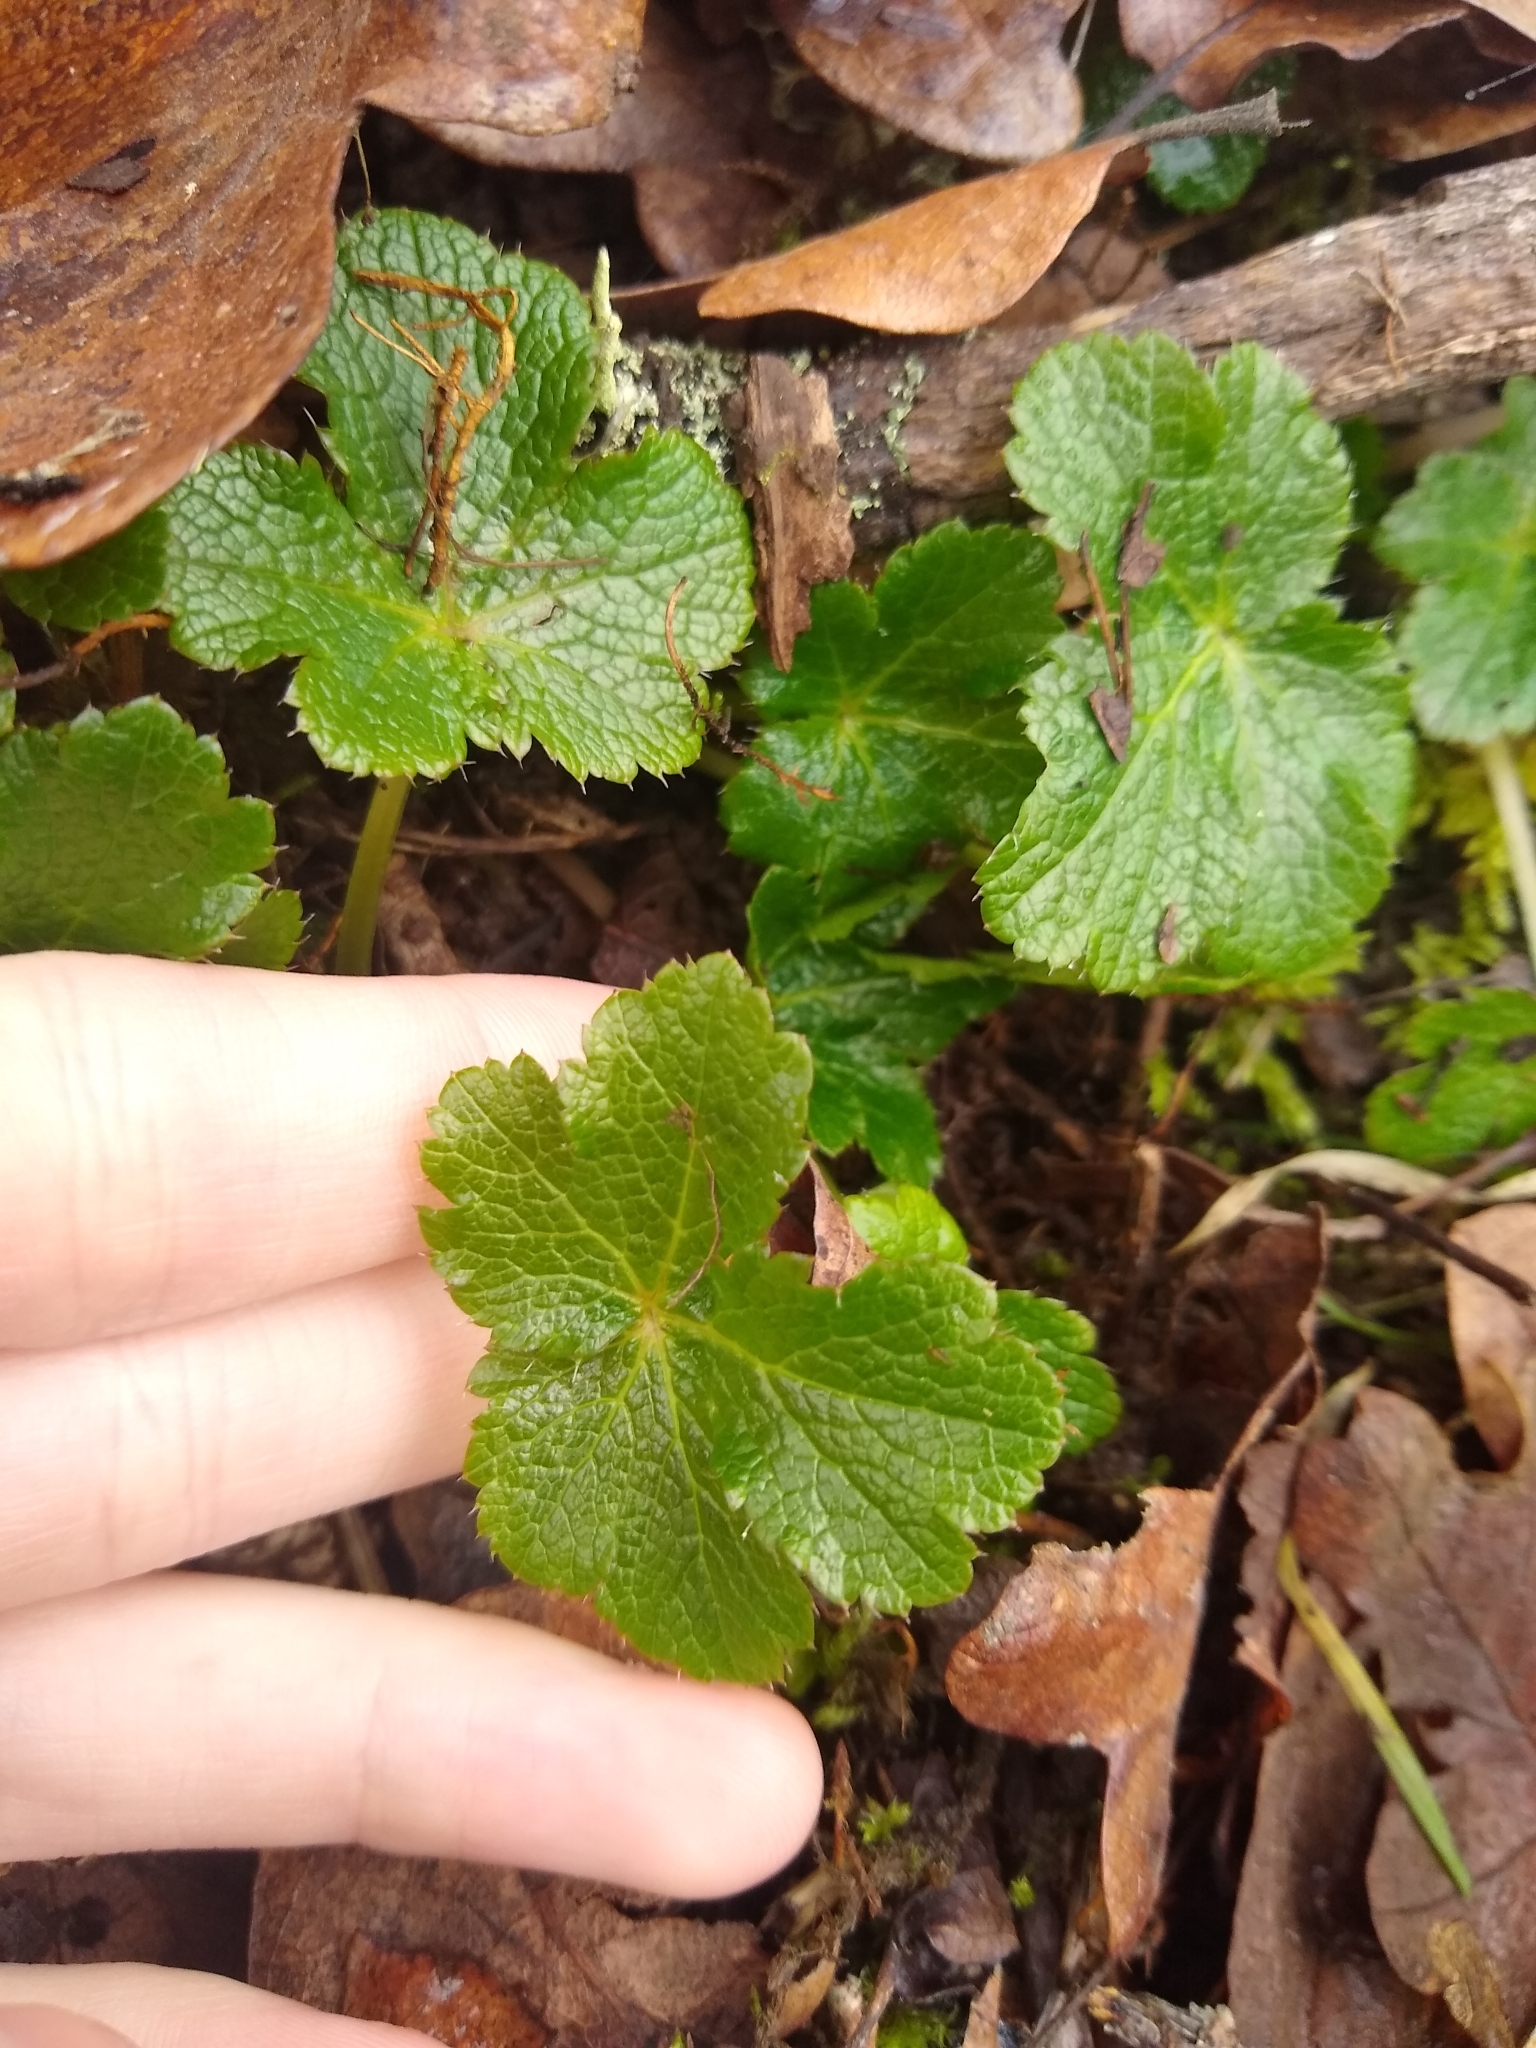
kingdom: Plantae
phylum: Tracheophyta
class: Magnoliopsida
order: Apiales
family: Apiaceae
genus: Sanicula
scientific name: Sanicula crassicaulis
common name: Western snakeroot
